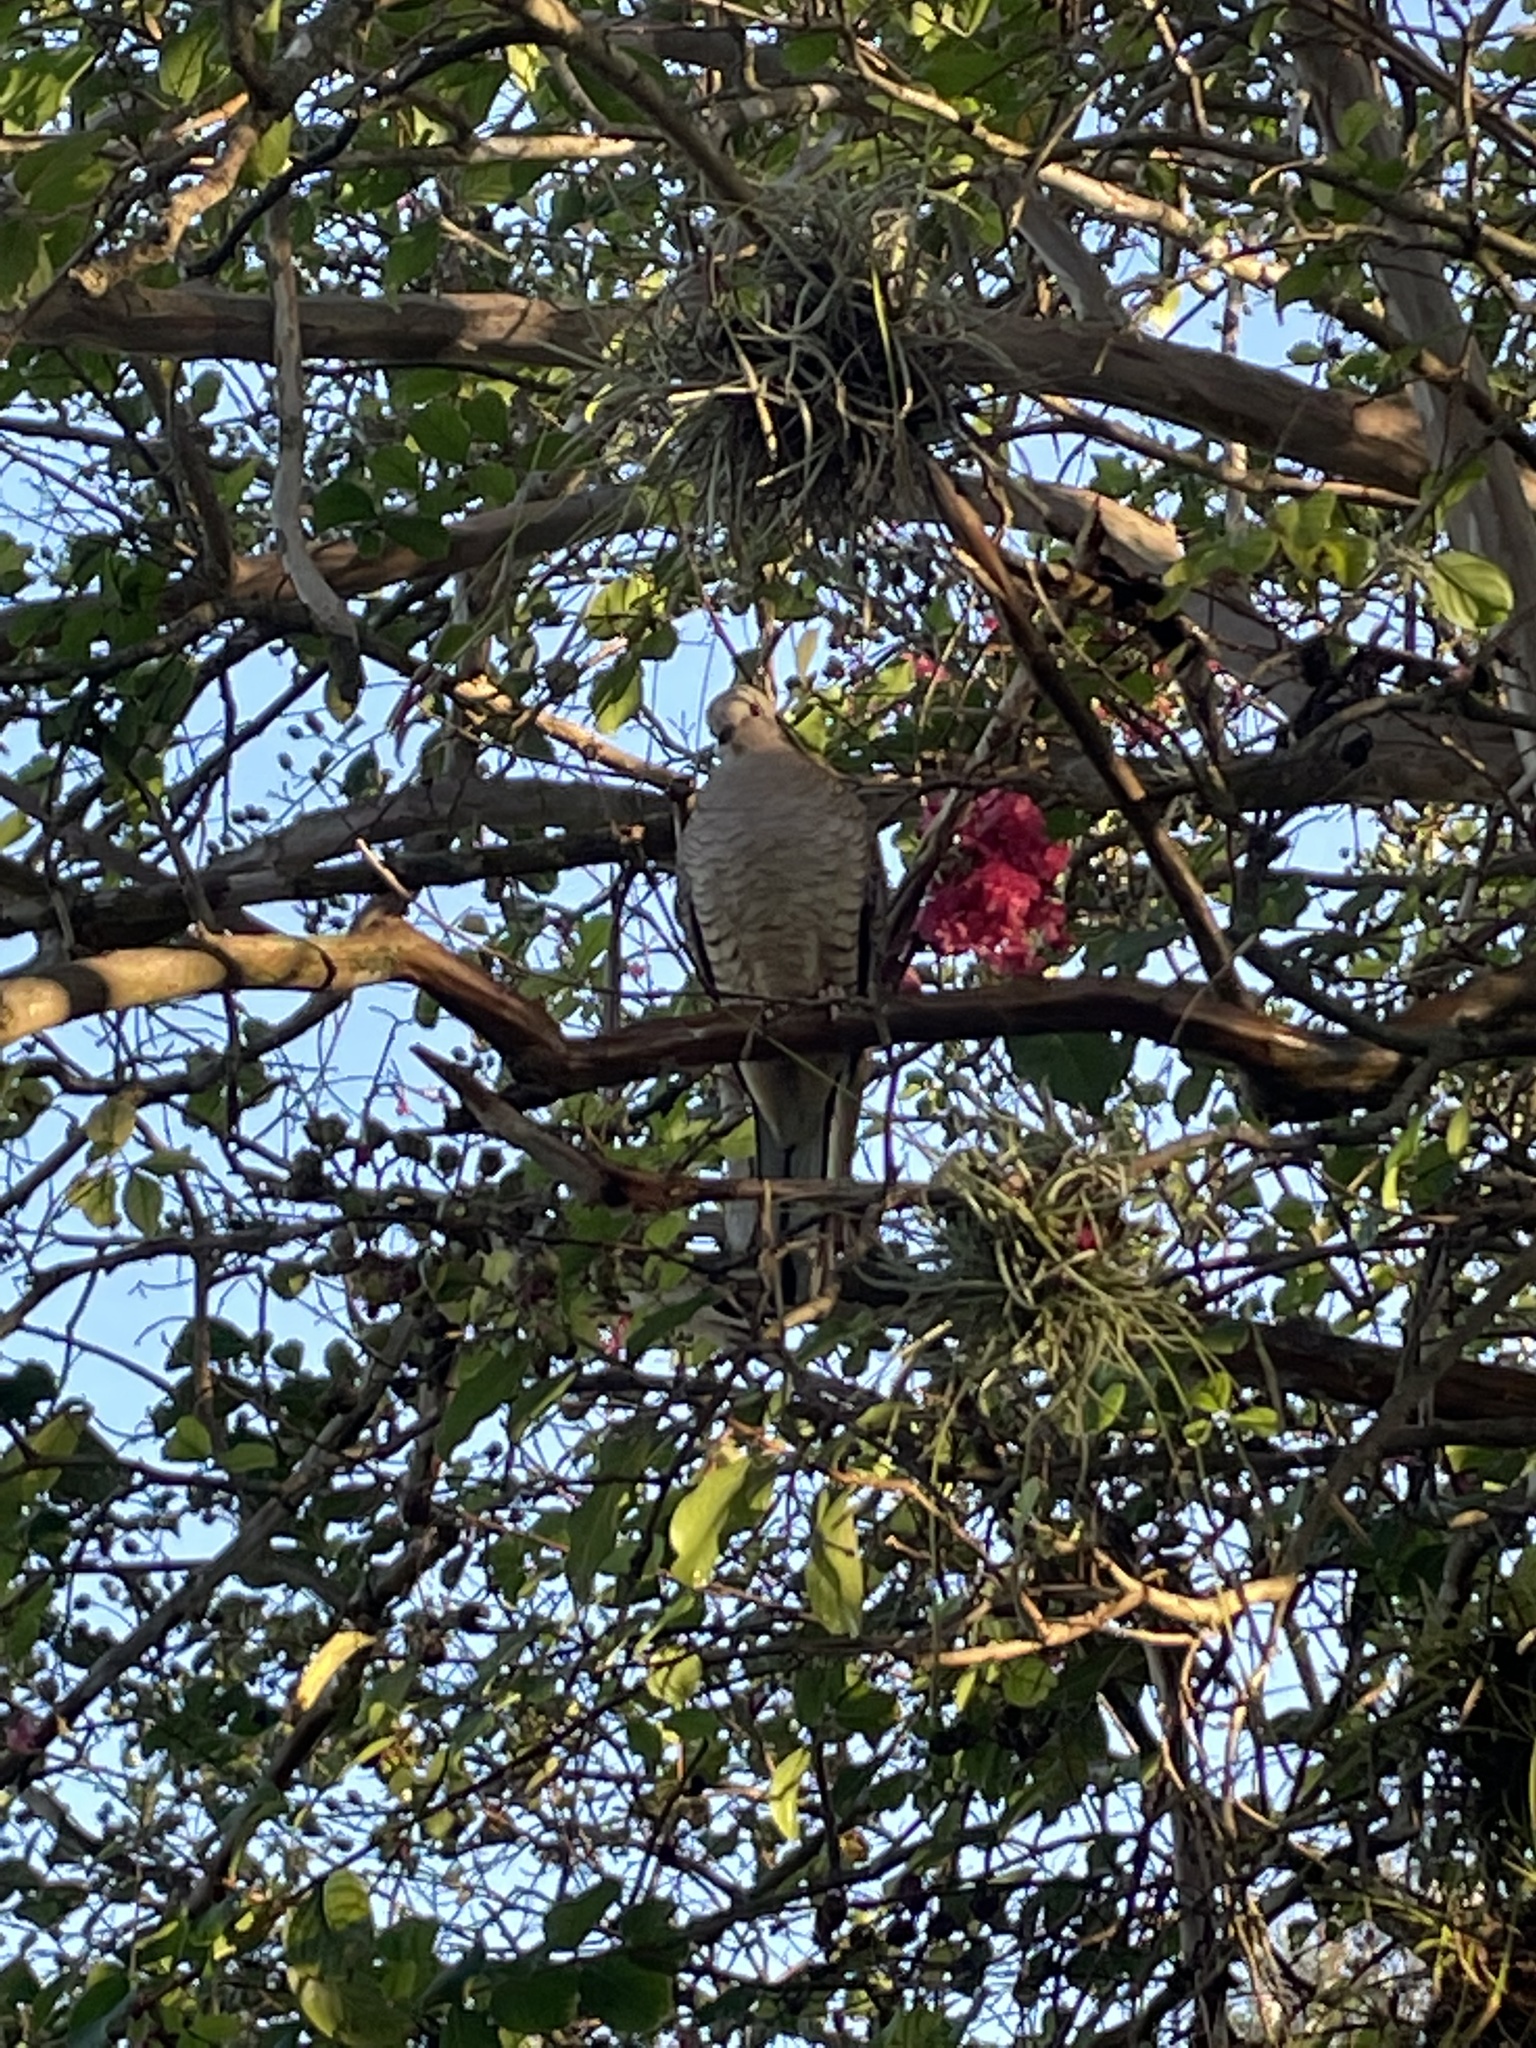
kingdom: Animalia
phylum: Chordata
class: Aves
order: Columbiformes
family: Columbidae
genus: Columbina
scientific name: Columbina inca
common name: Inca dove
